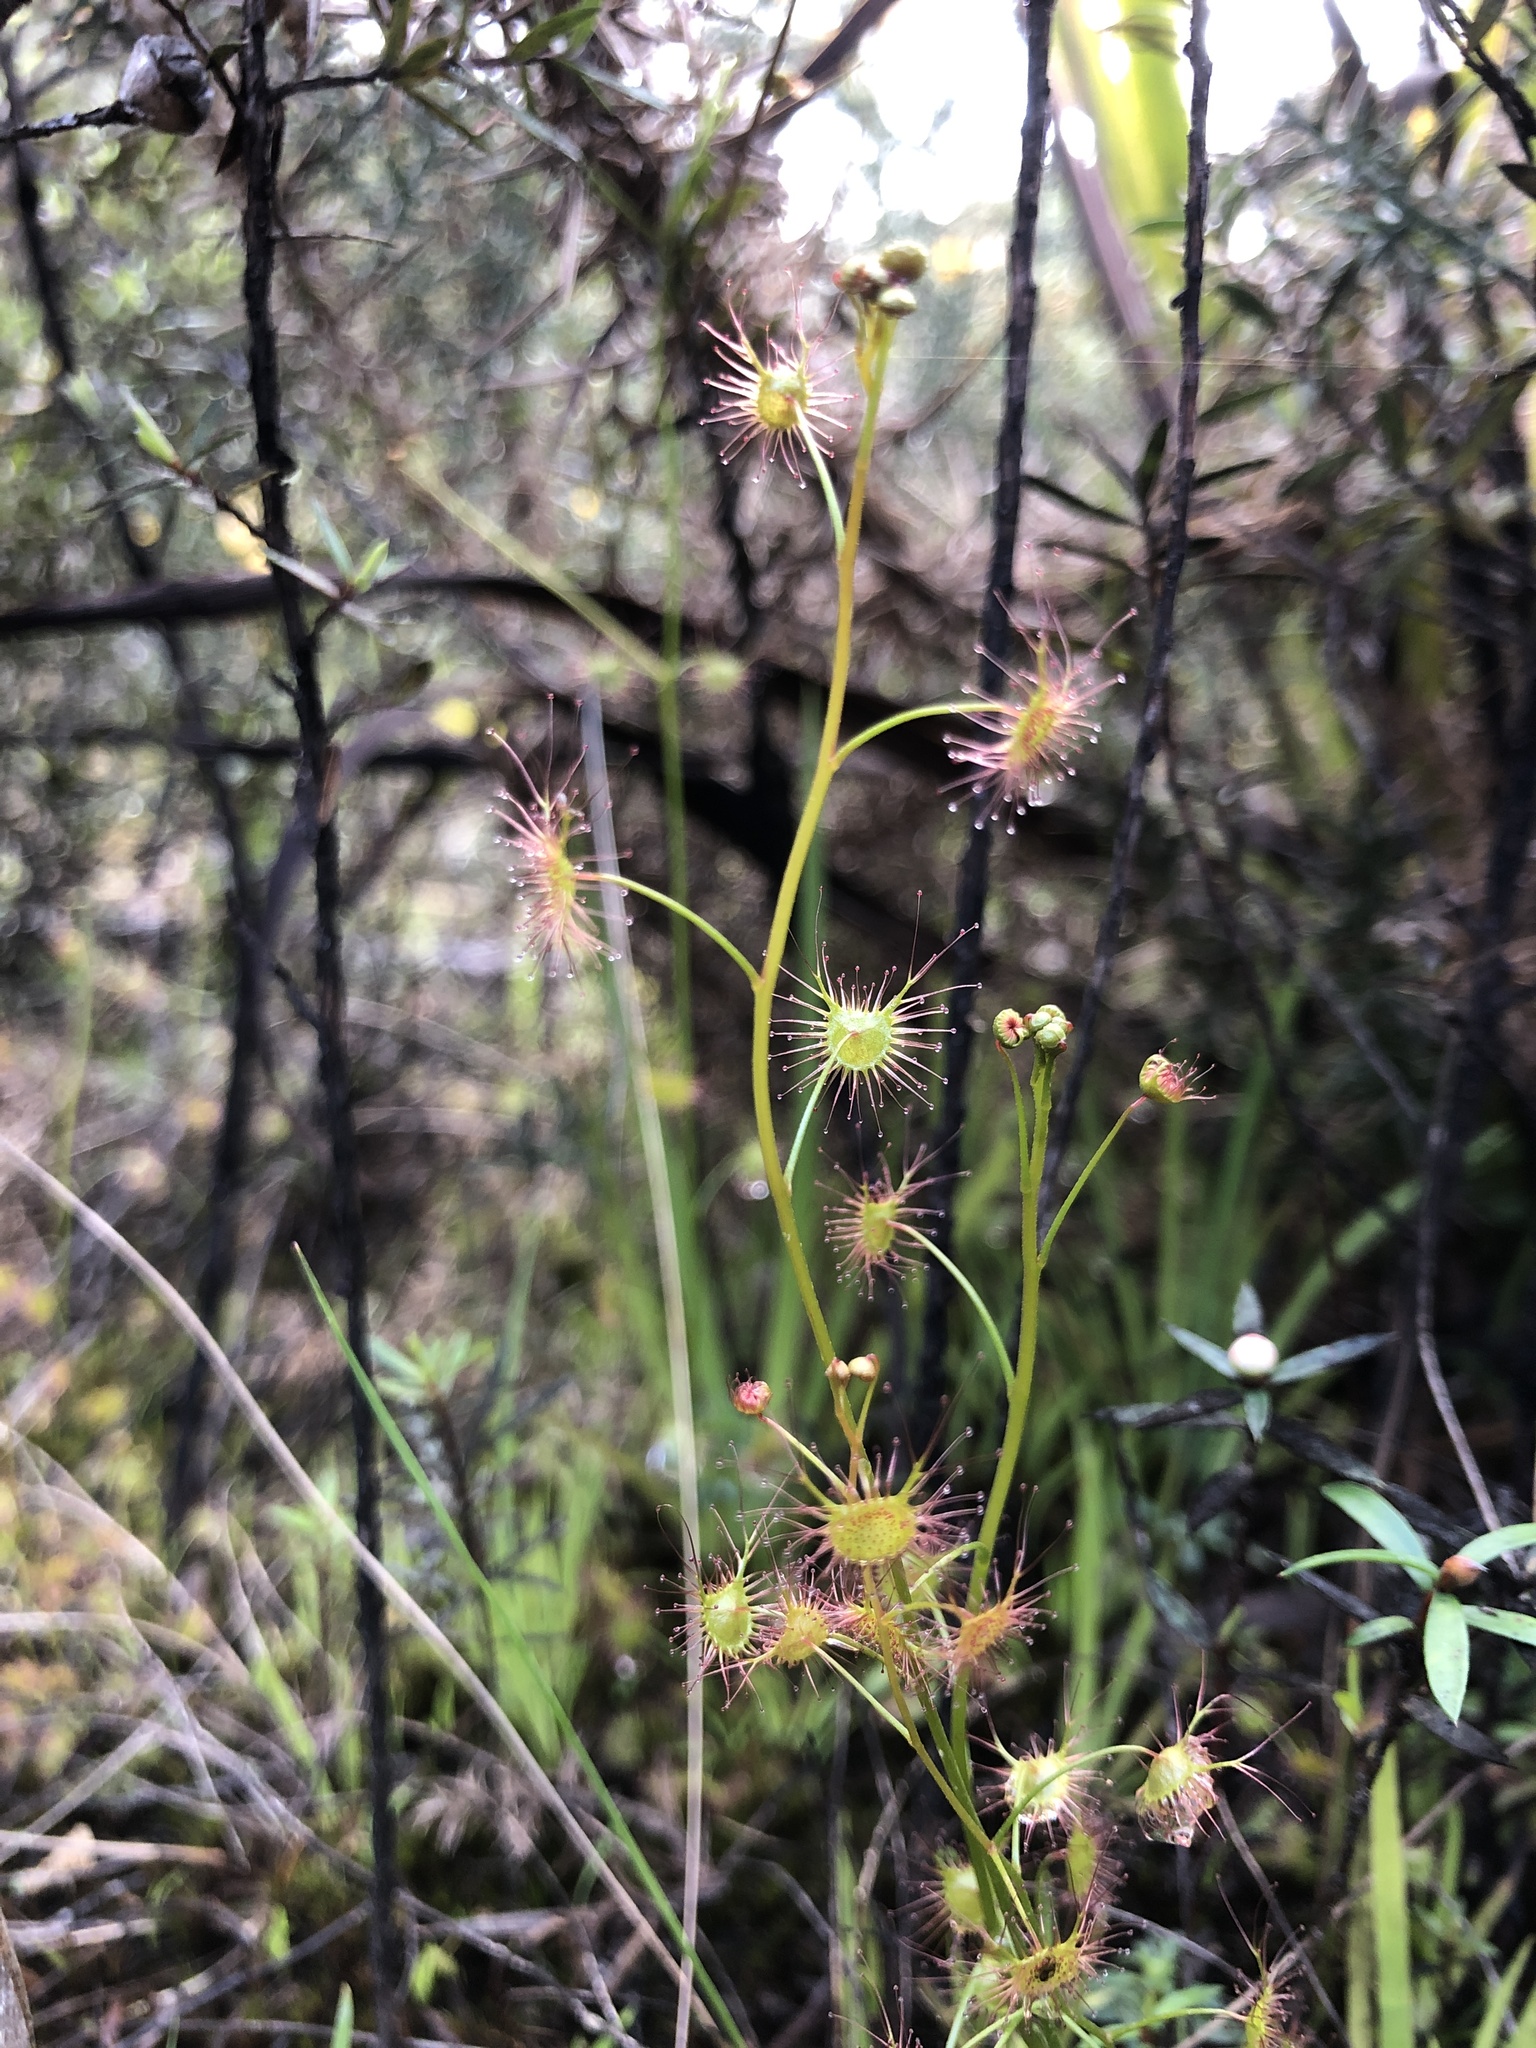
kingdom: Plantae
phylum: Tracheophyta
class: Magnoliopsida
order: Caryophyllales
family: Droseraceae
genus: Drosera
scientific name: Drosera peltata
